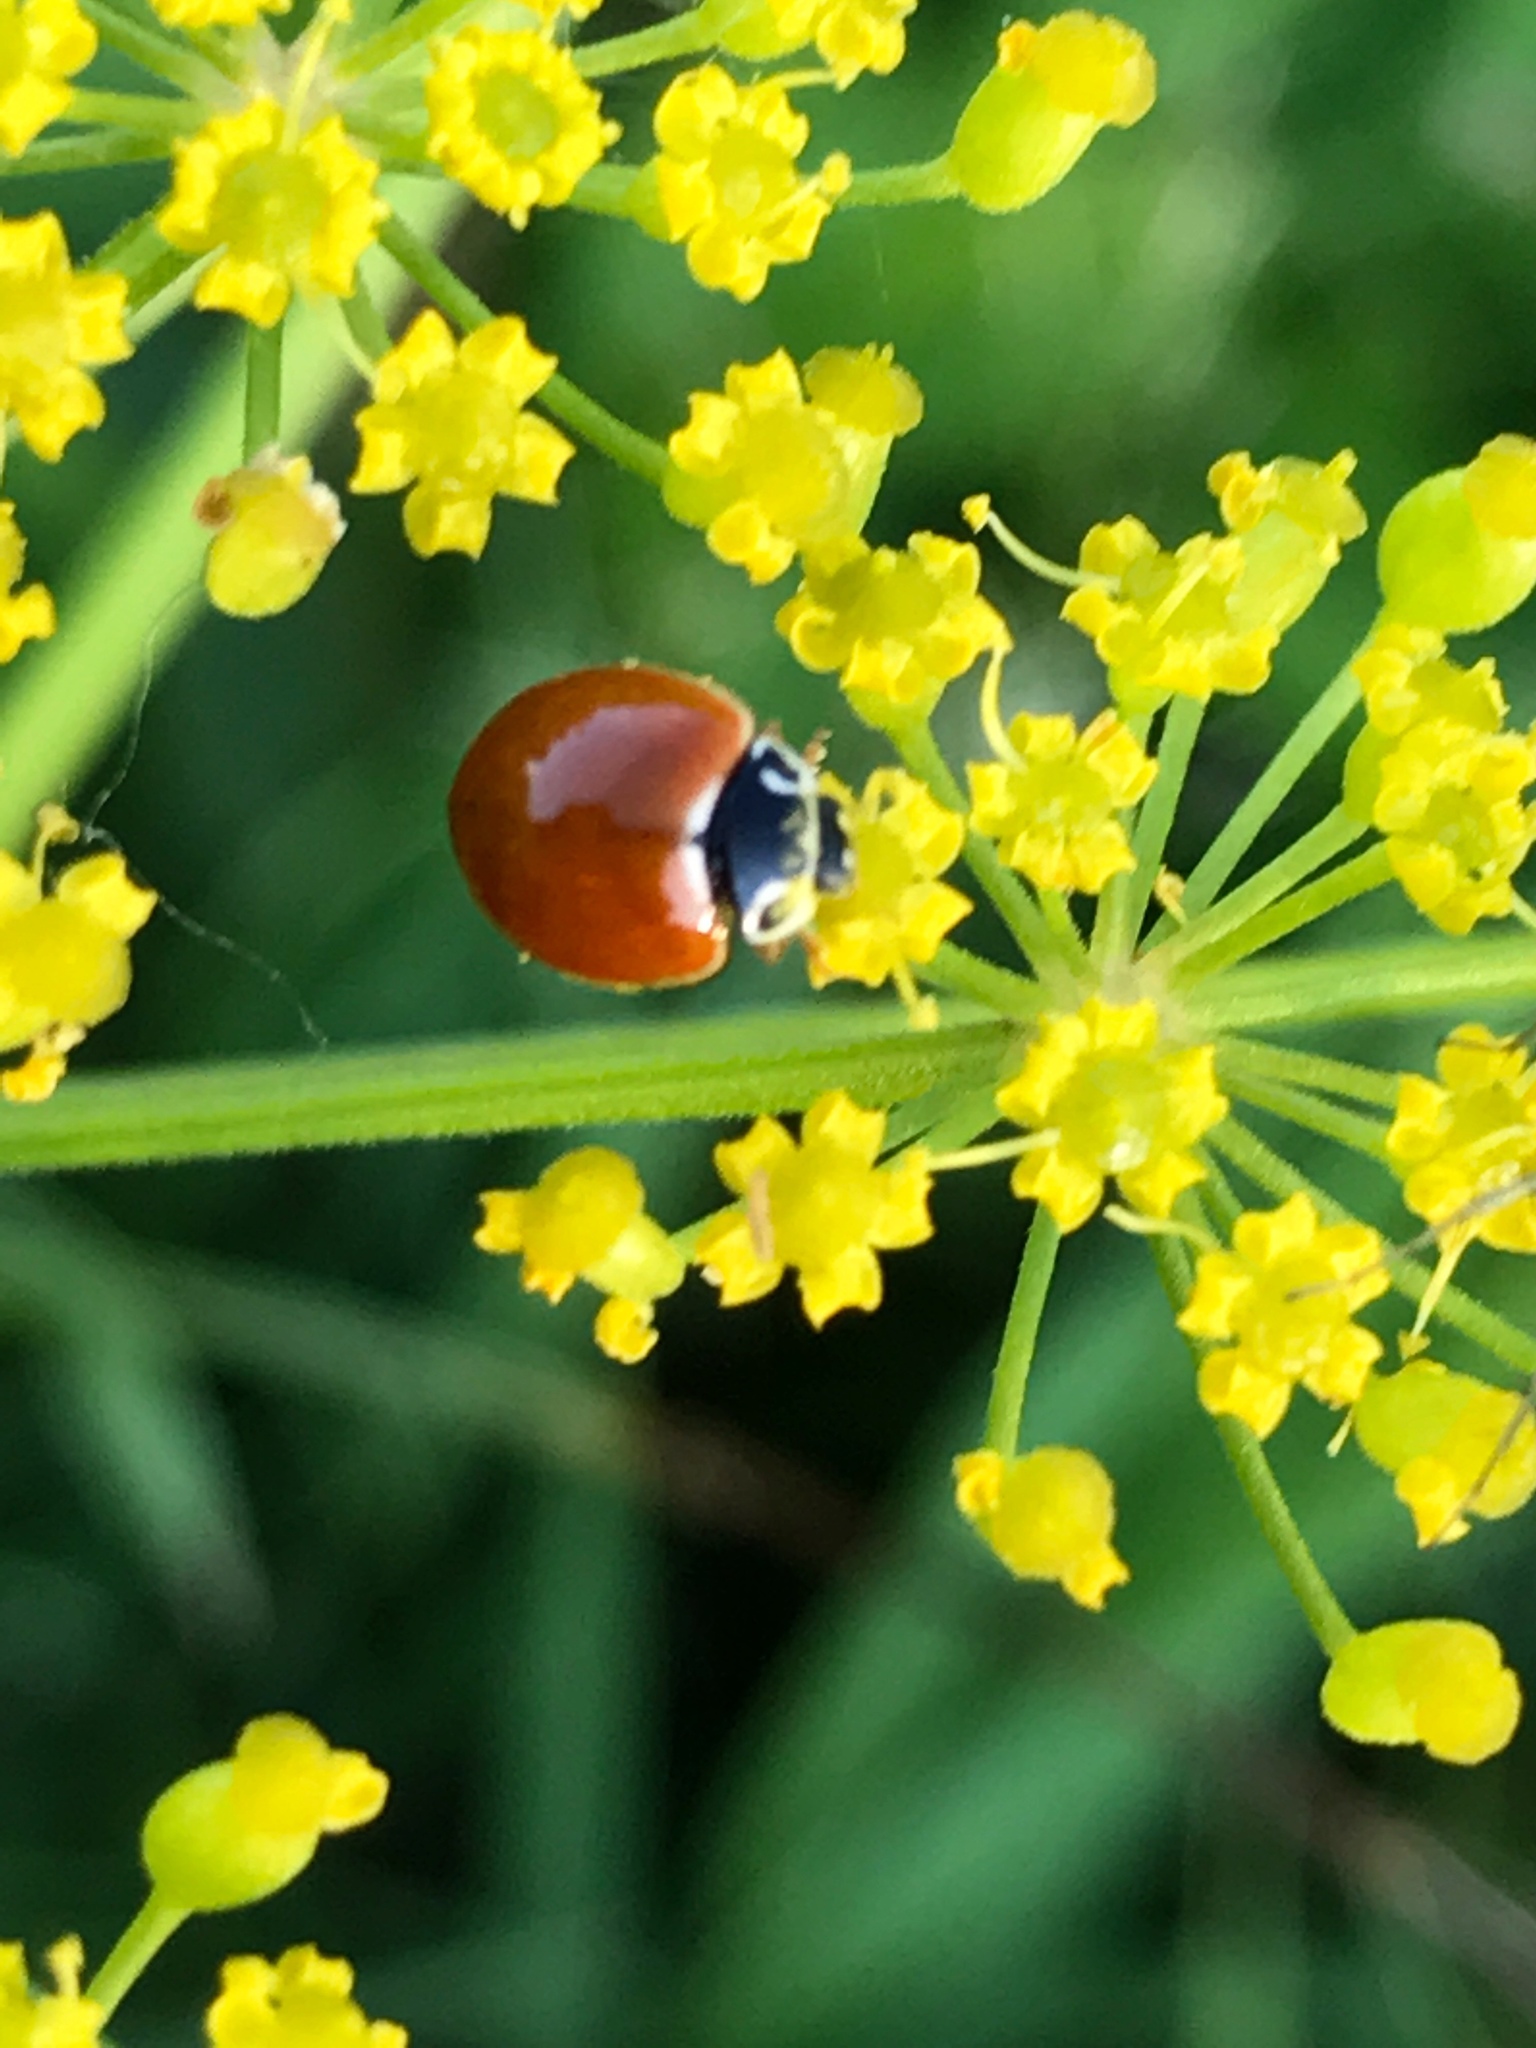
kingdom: Animalia
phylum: Arthropoda
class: Insecta
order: Coleoptera
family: Coccinellidae
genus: Cycloneda
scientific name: Cycloneda munda
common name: Polished lady beetle
